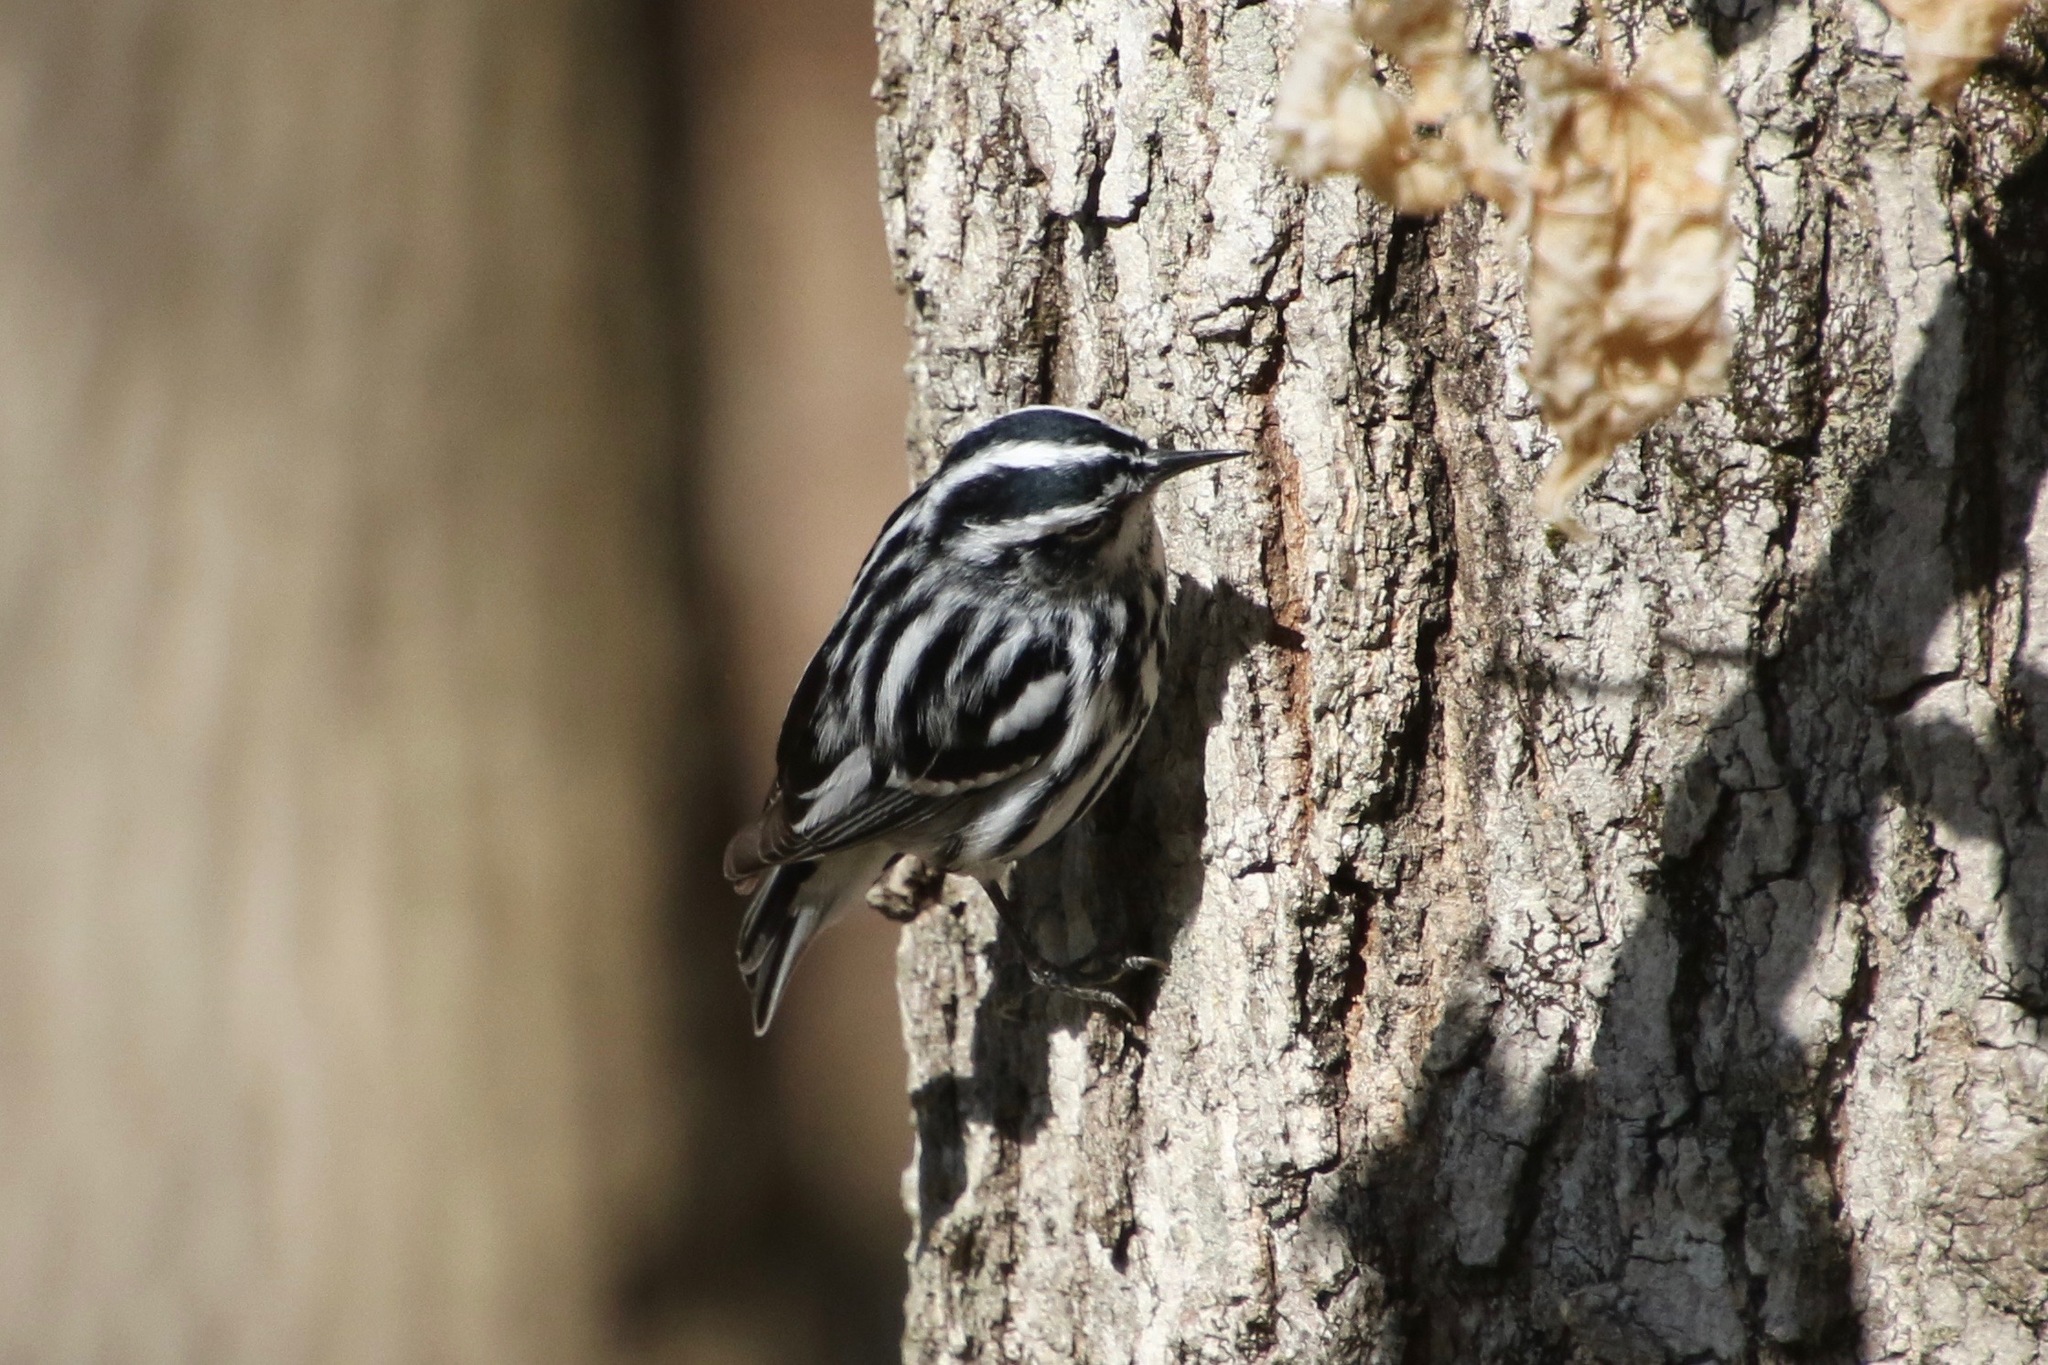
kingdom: Animalia
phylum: Chordata
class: Aves
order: Passeriformes
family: Parulidae
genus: Mniotilta
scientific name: Mniotilta varia
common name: Black-and-white warbler
